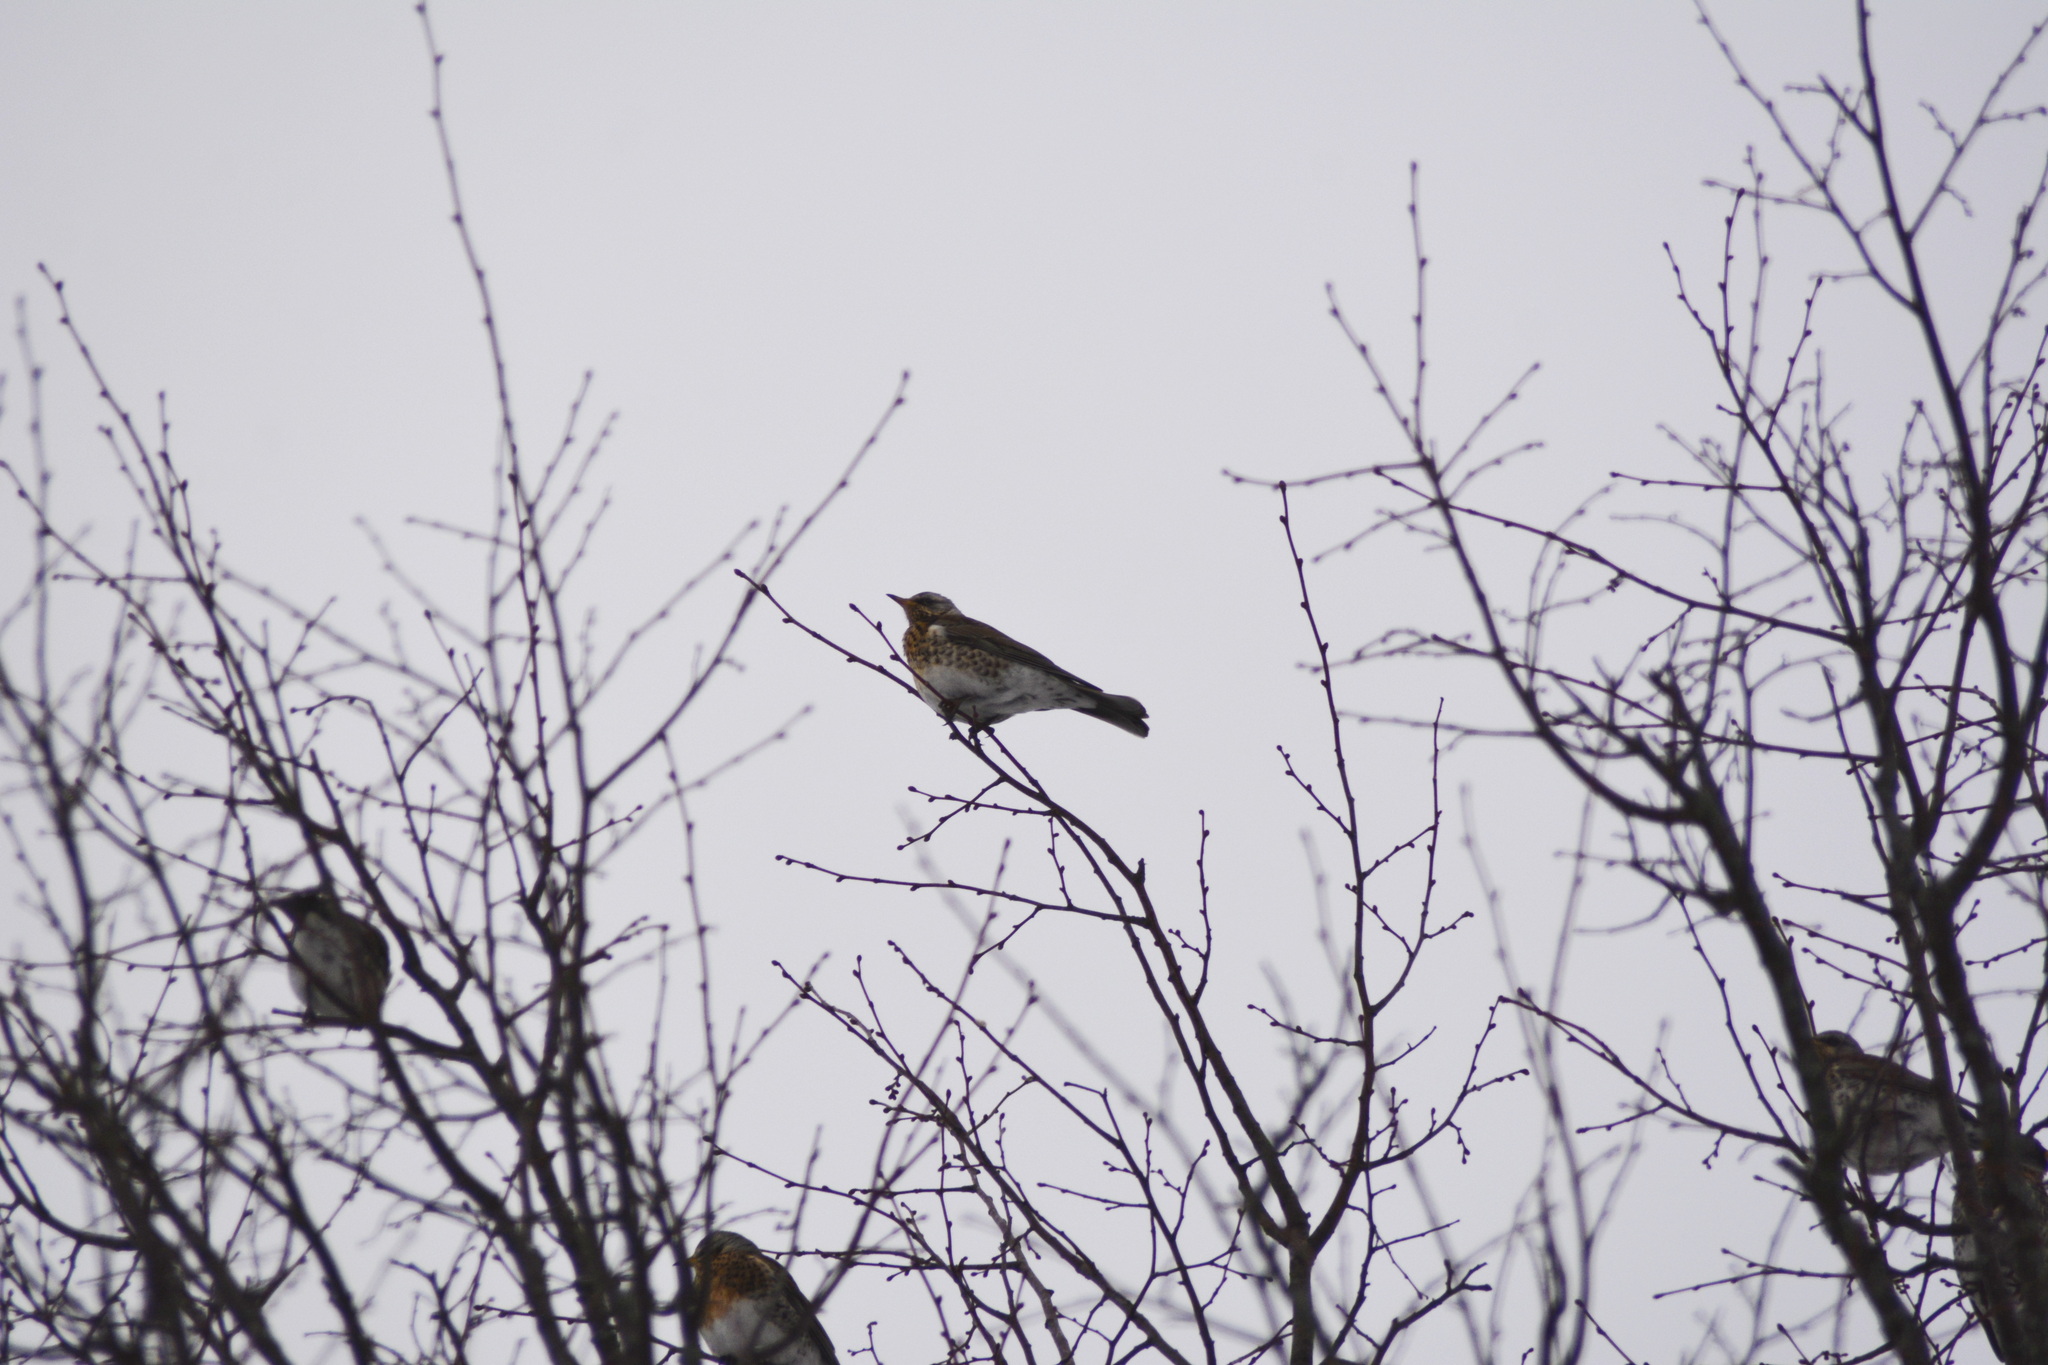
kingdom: Animalia
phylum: Chordata
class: Aves
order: Passeriformes
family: Turdidae
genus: Turdus
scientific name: Turdus pilaris
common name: Fieldfare
